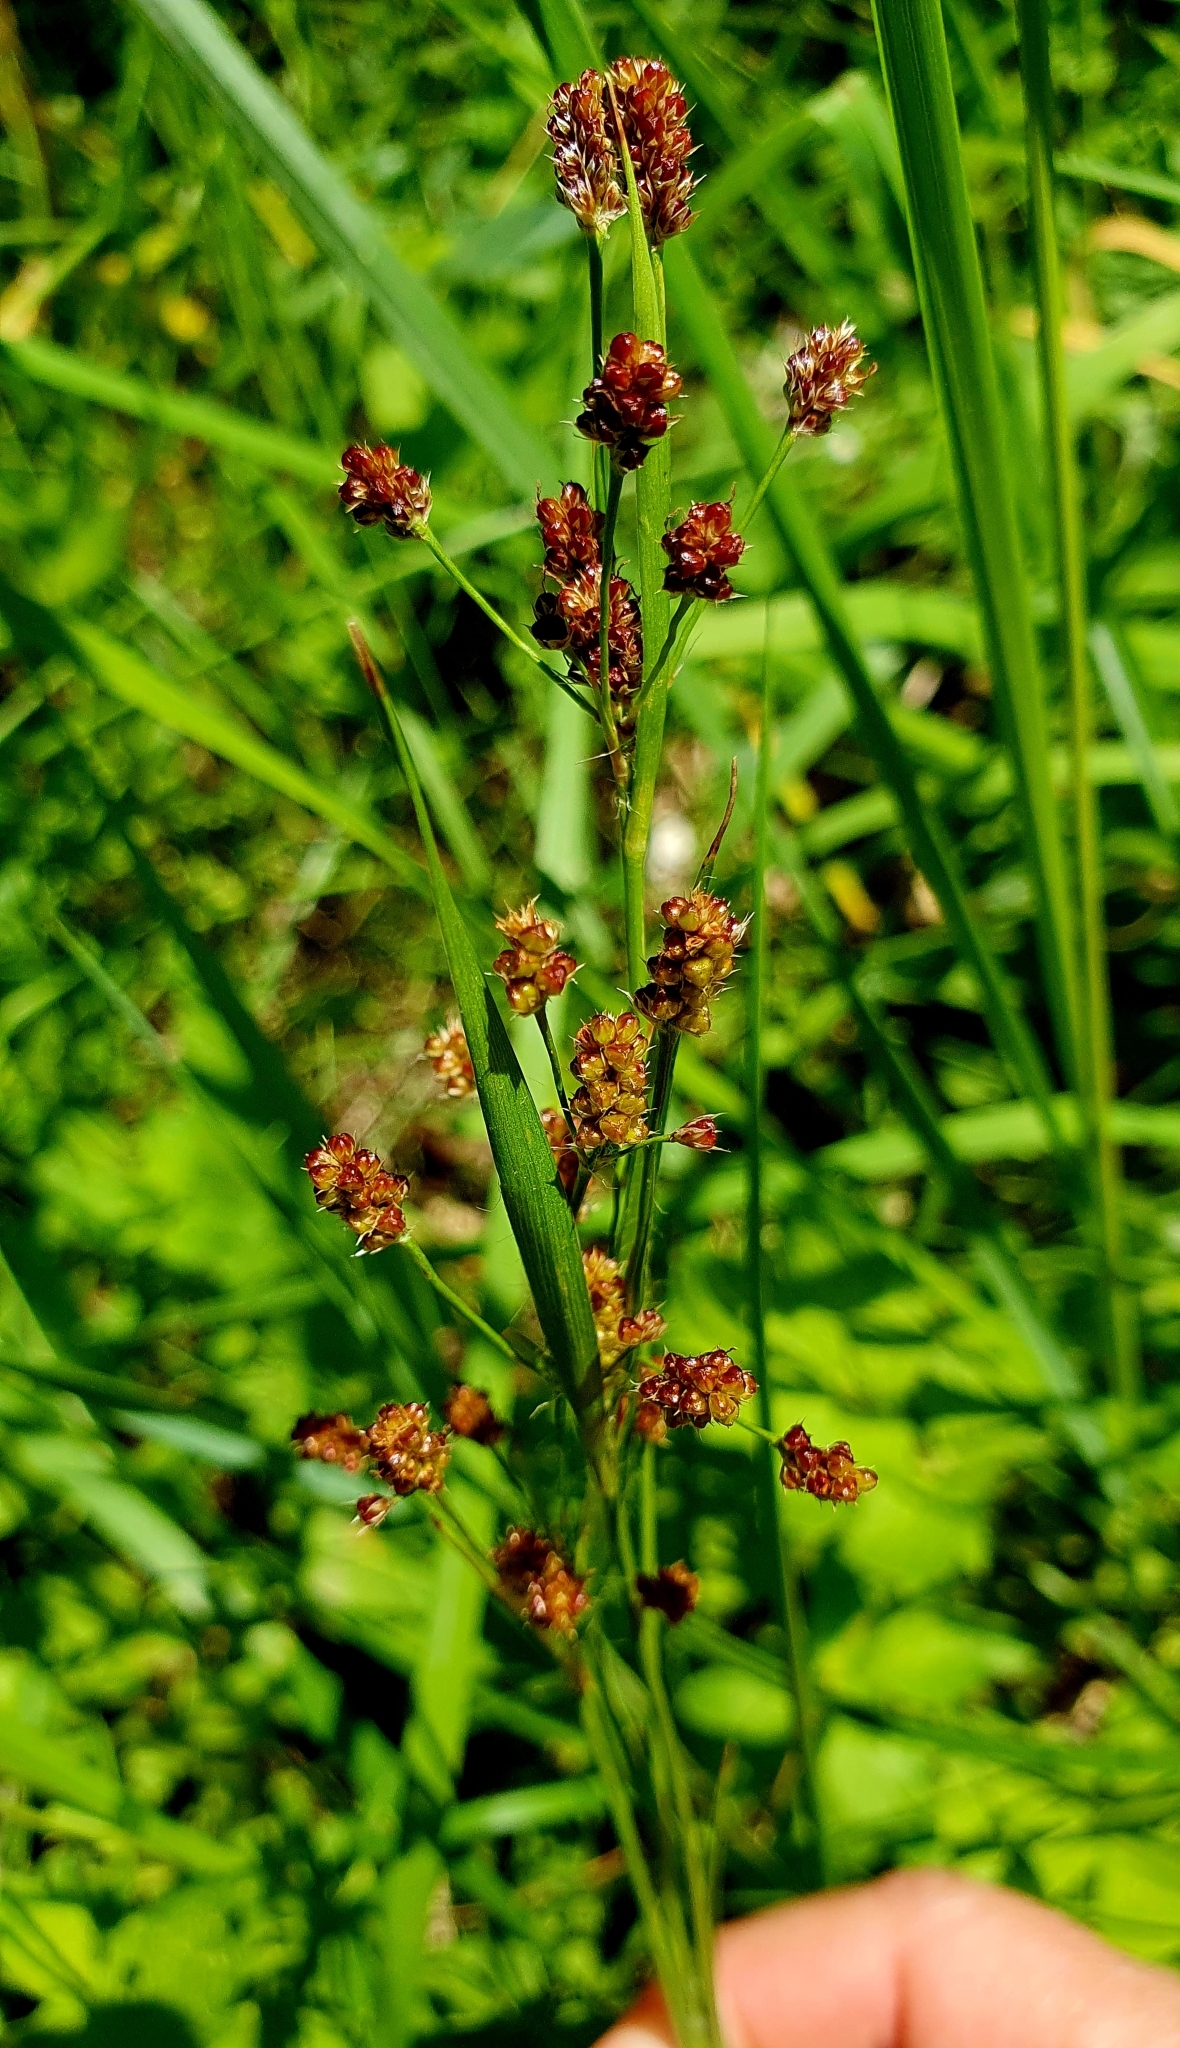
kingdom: Plantae
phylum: Tracheophyta
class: Liliopsida
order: Poales
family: Juncaceae
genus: Luzula
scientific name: Luzula pallescens
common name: Fen wood-rush
